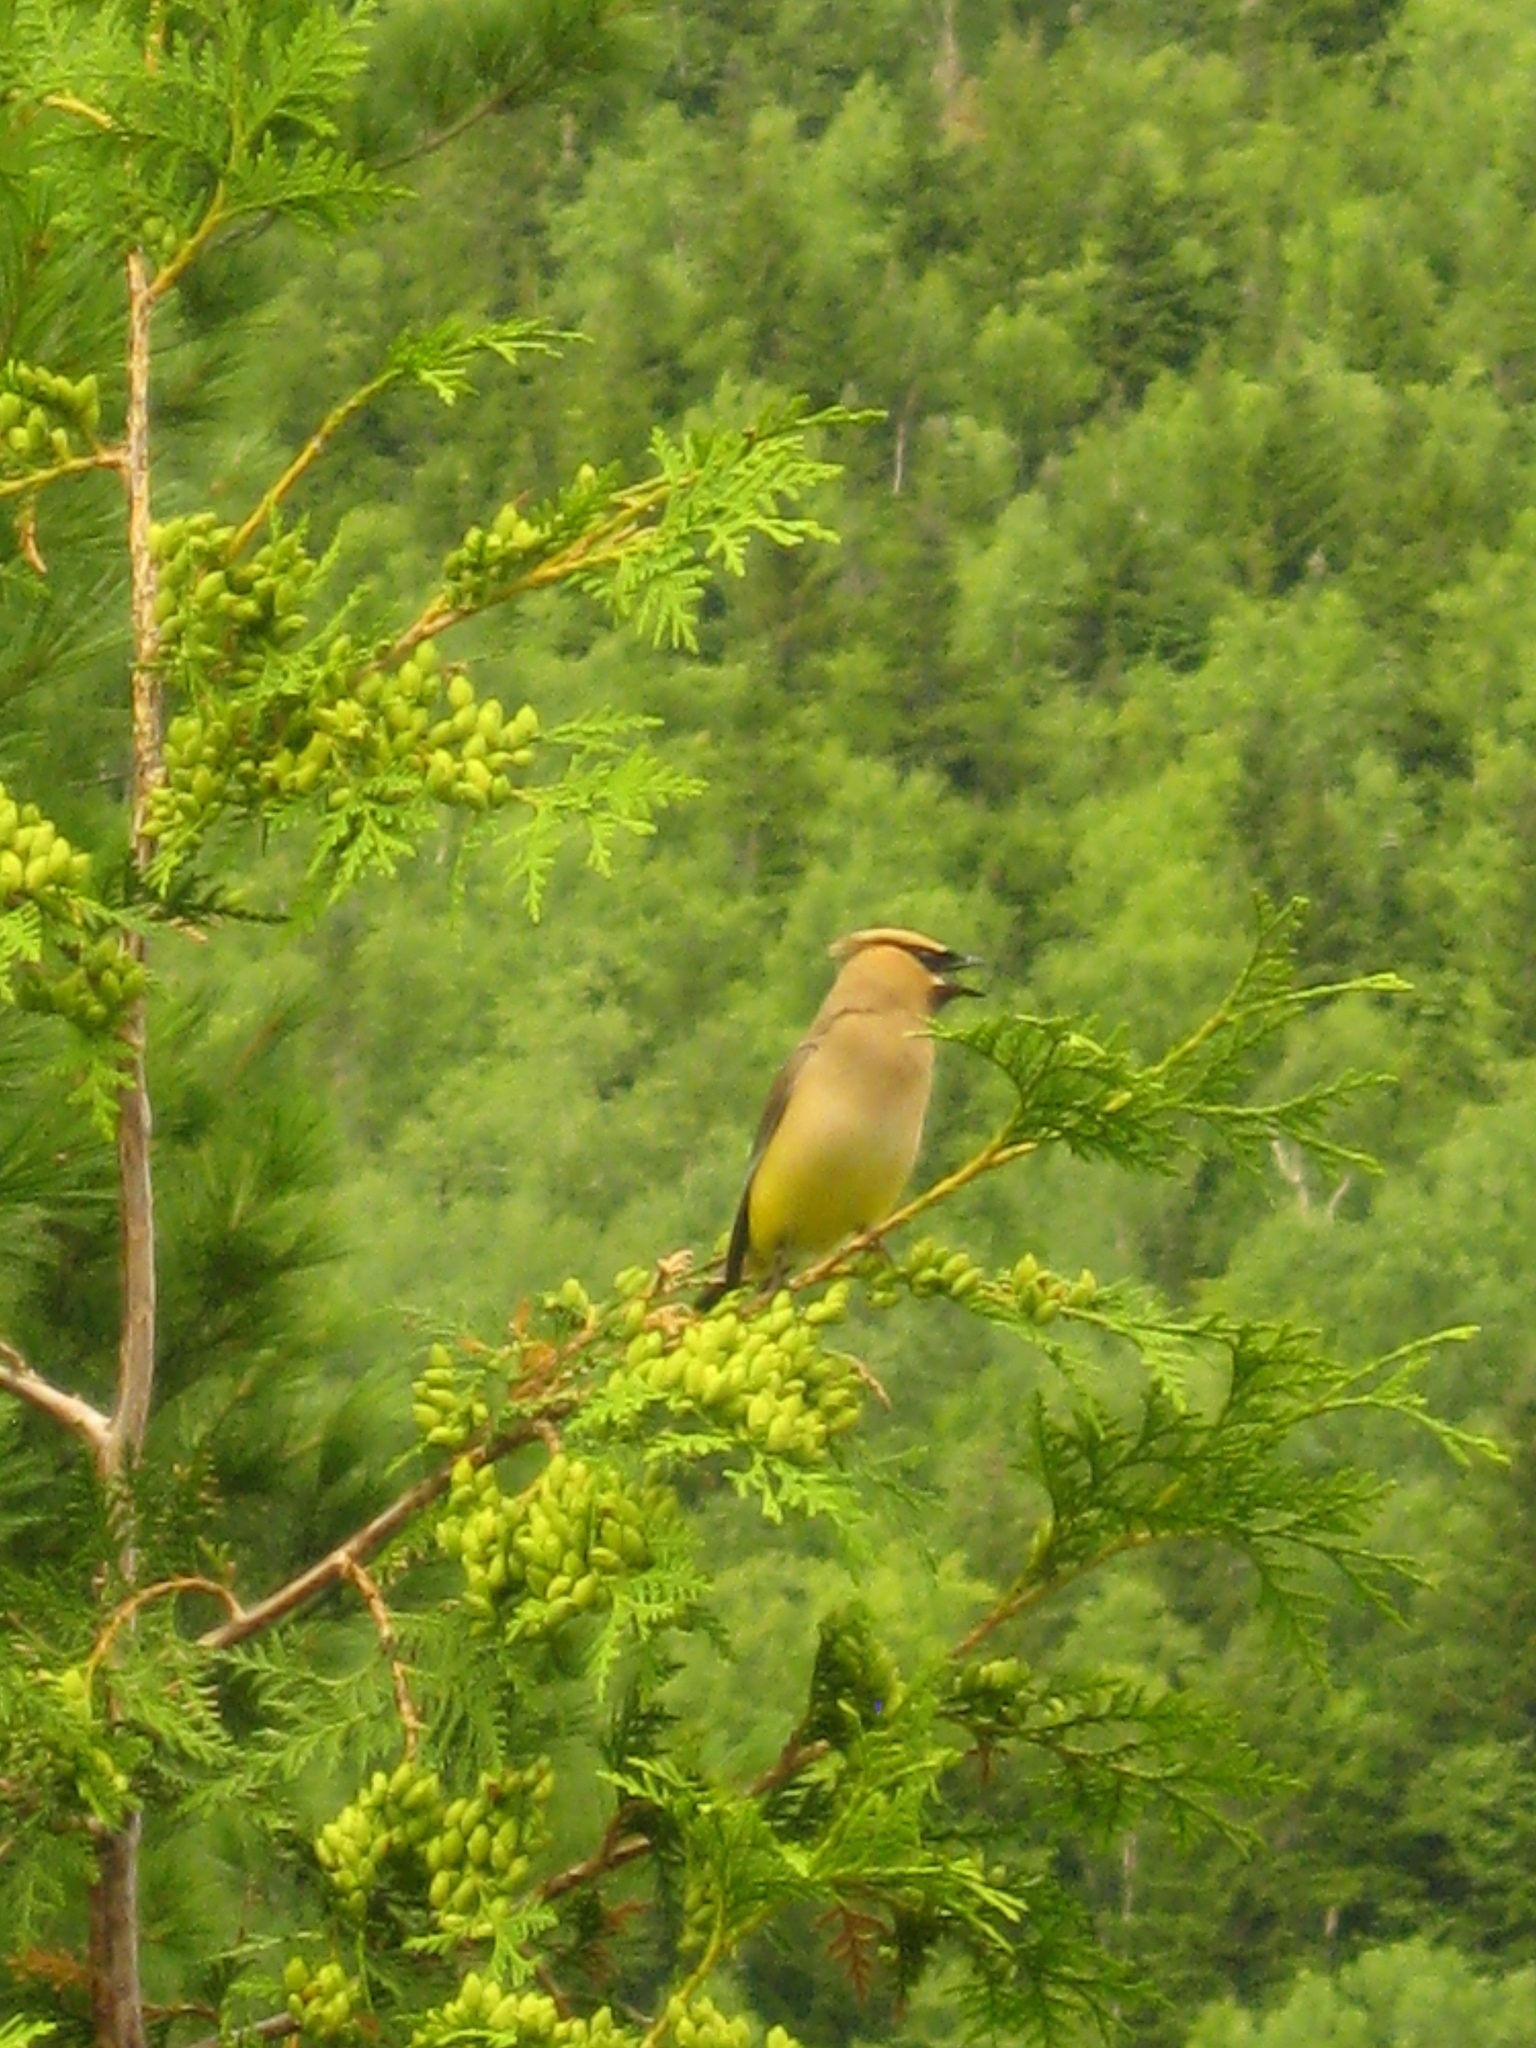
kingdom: Animalia
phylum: Chordata
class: Aves
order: Passeriformes
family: Bombycillidae
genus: Bombycilla
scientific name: Bombycilla cedrorum
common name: Cedar waxwing
